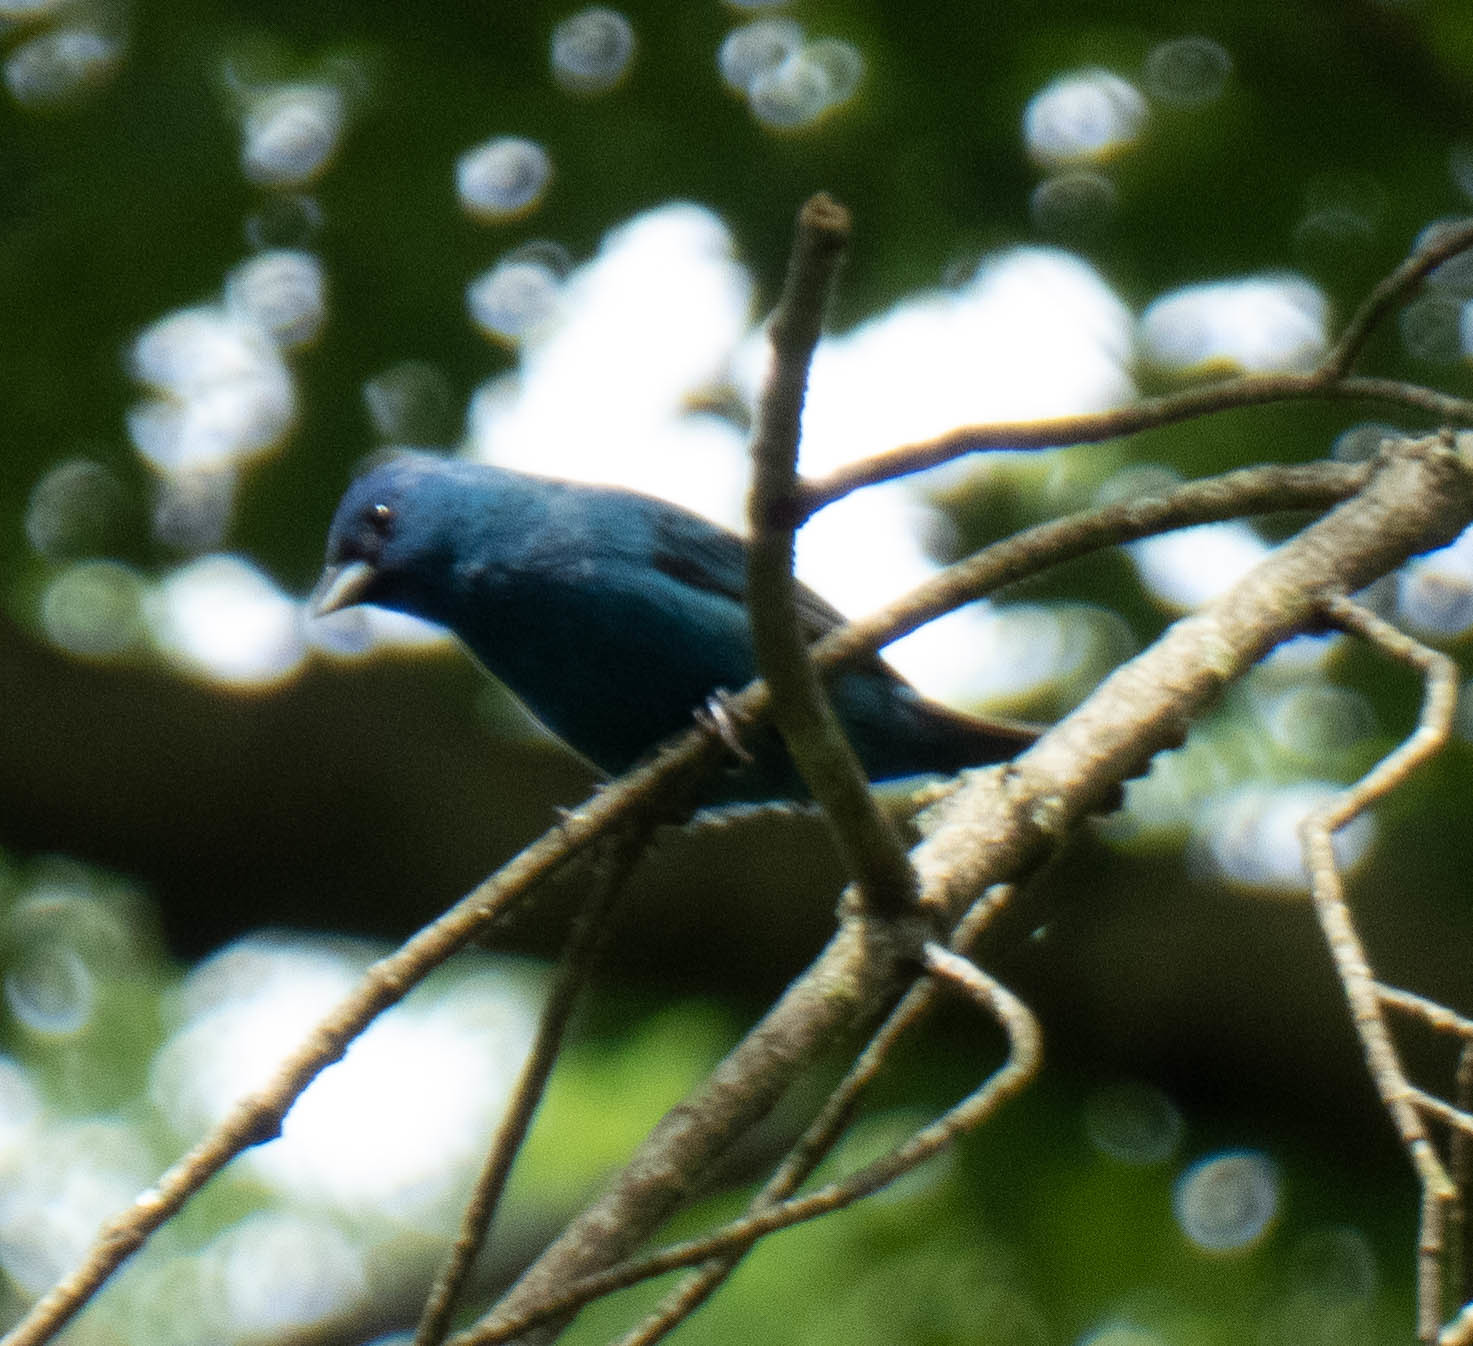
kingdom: Animalia
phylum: Chordata
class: Aves
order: Passeriformes
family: Cardinalidae
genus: Passerina
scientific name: Passerina cyanea
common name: Indigo bunting
